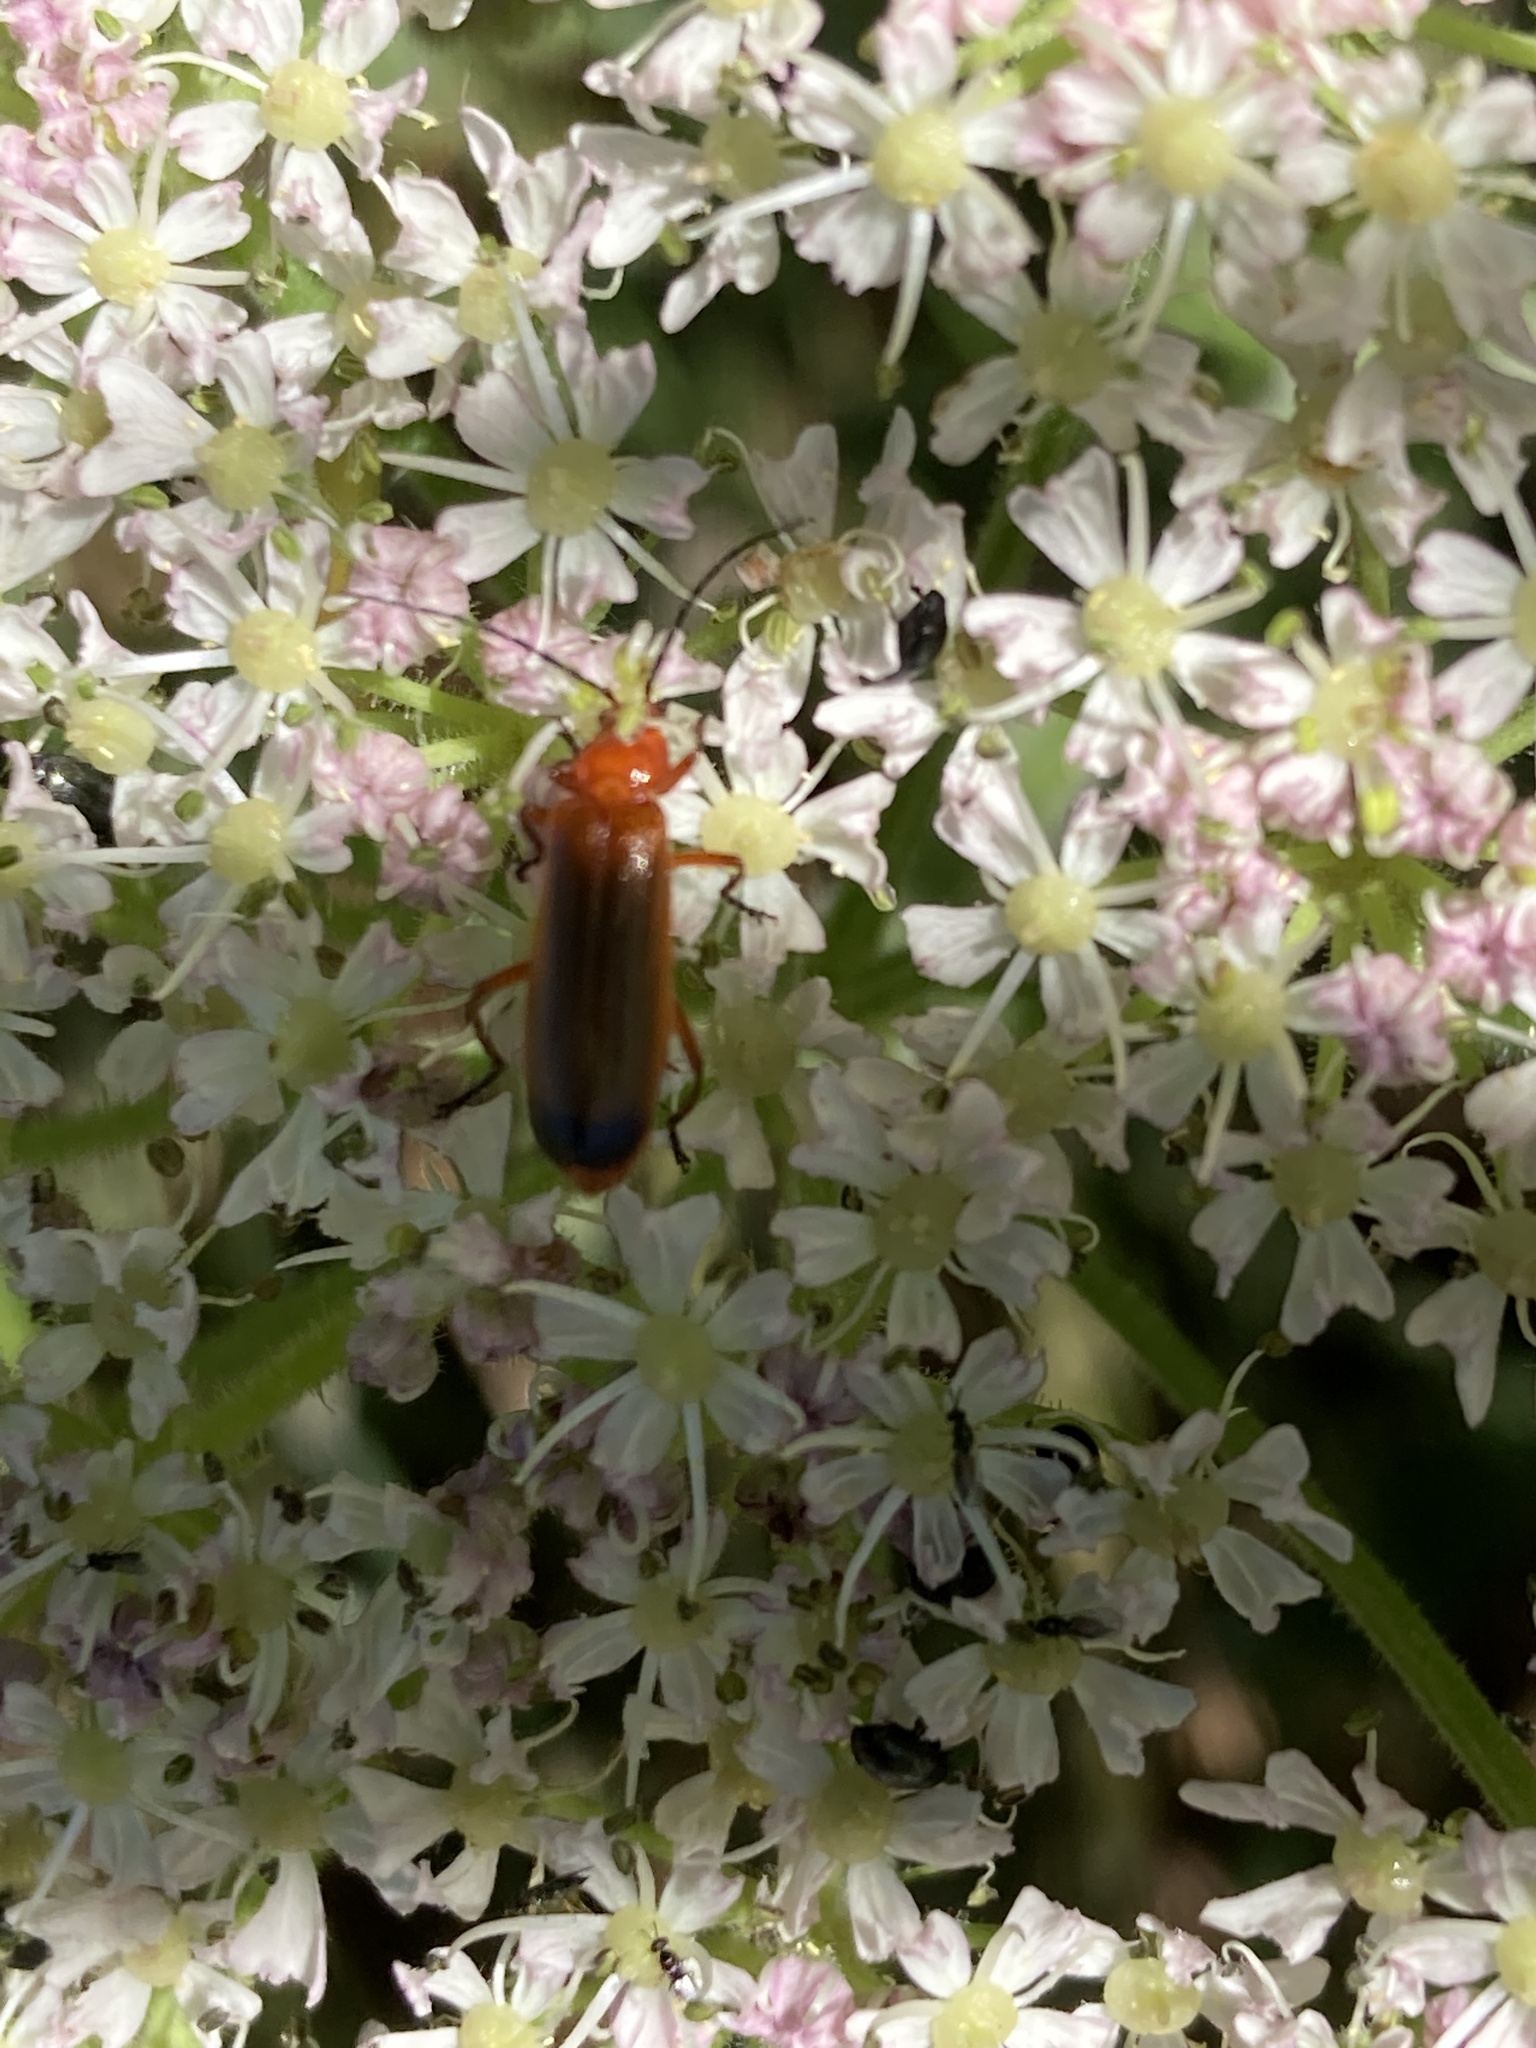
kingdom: Animalia
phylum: Arthropoda
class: Insecta
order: Coleoptera
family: Cantharidae
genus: Rhagonycha
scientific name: Rhagonycha fulva
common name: Common red soldier beetle
